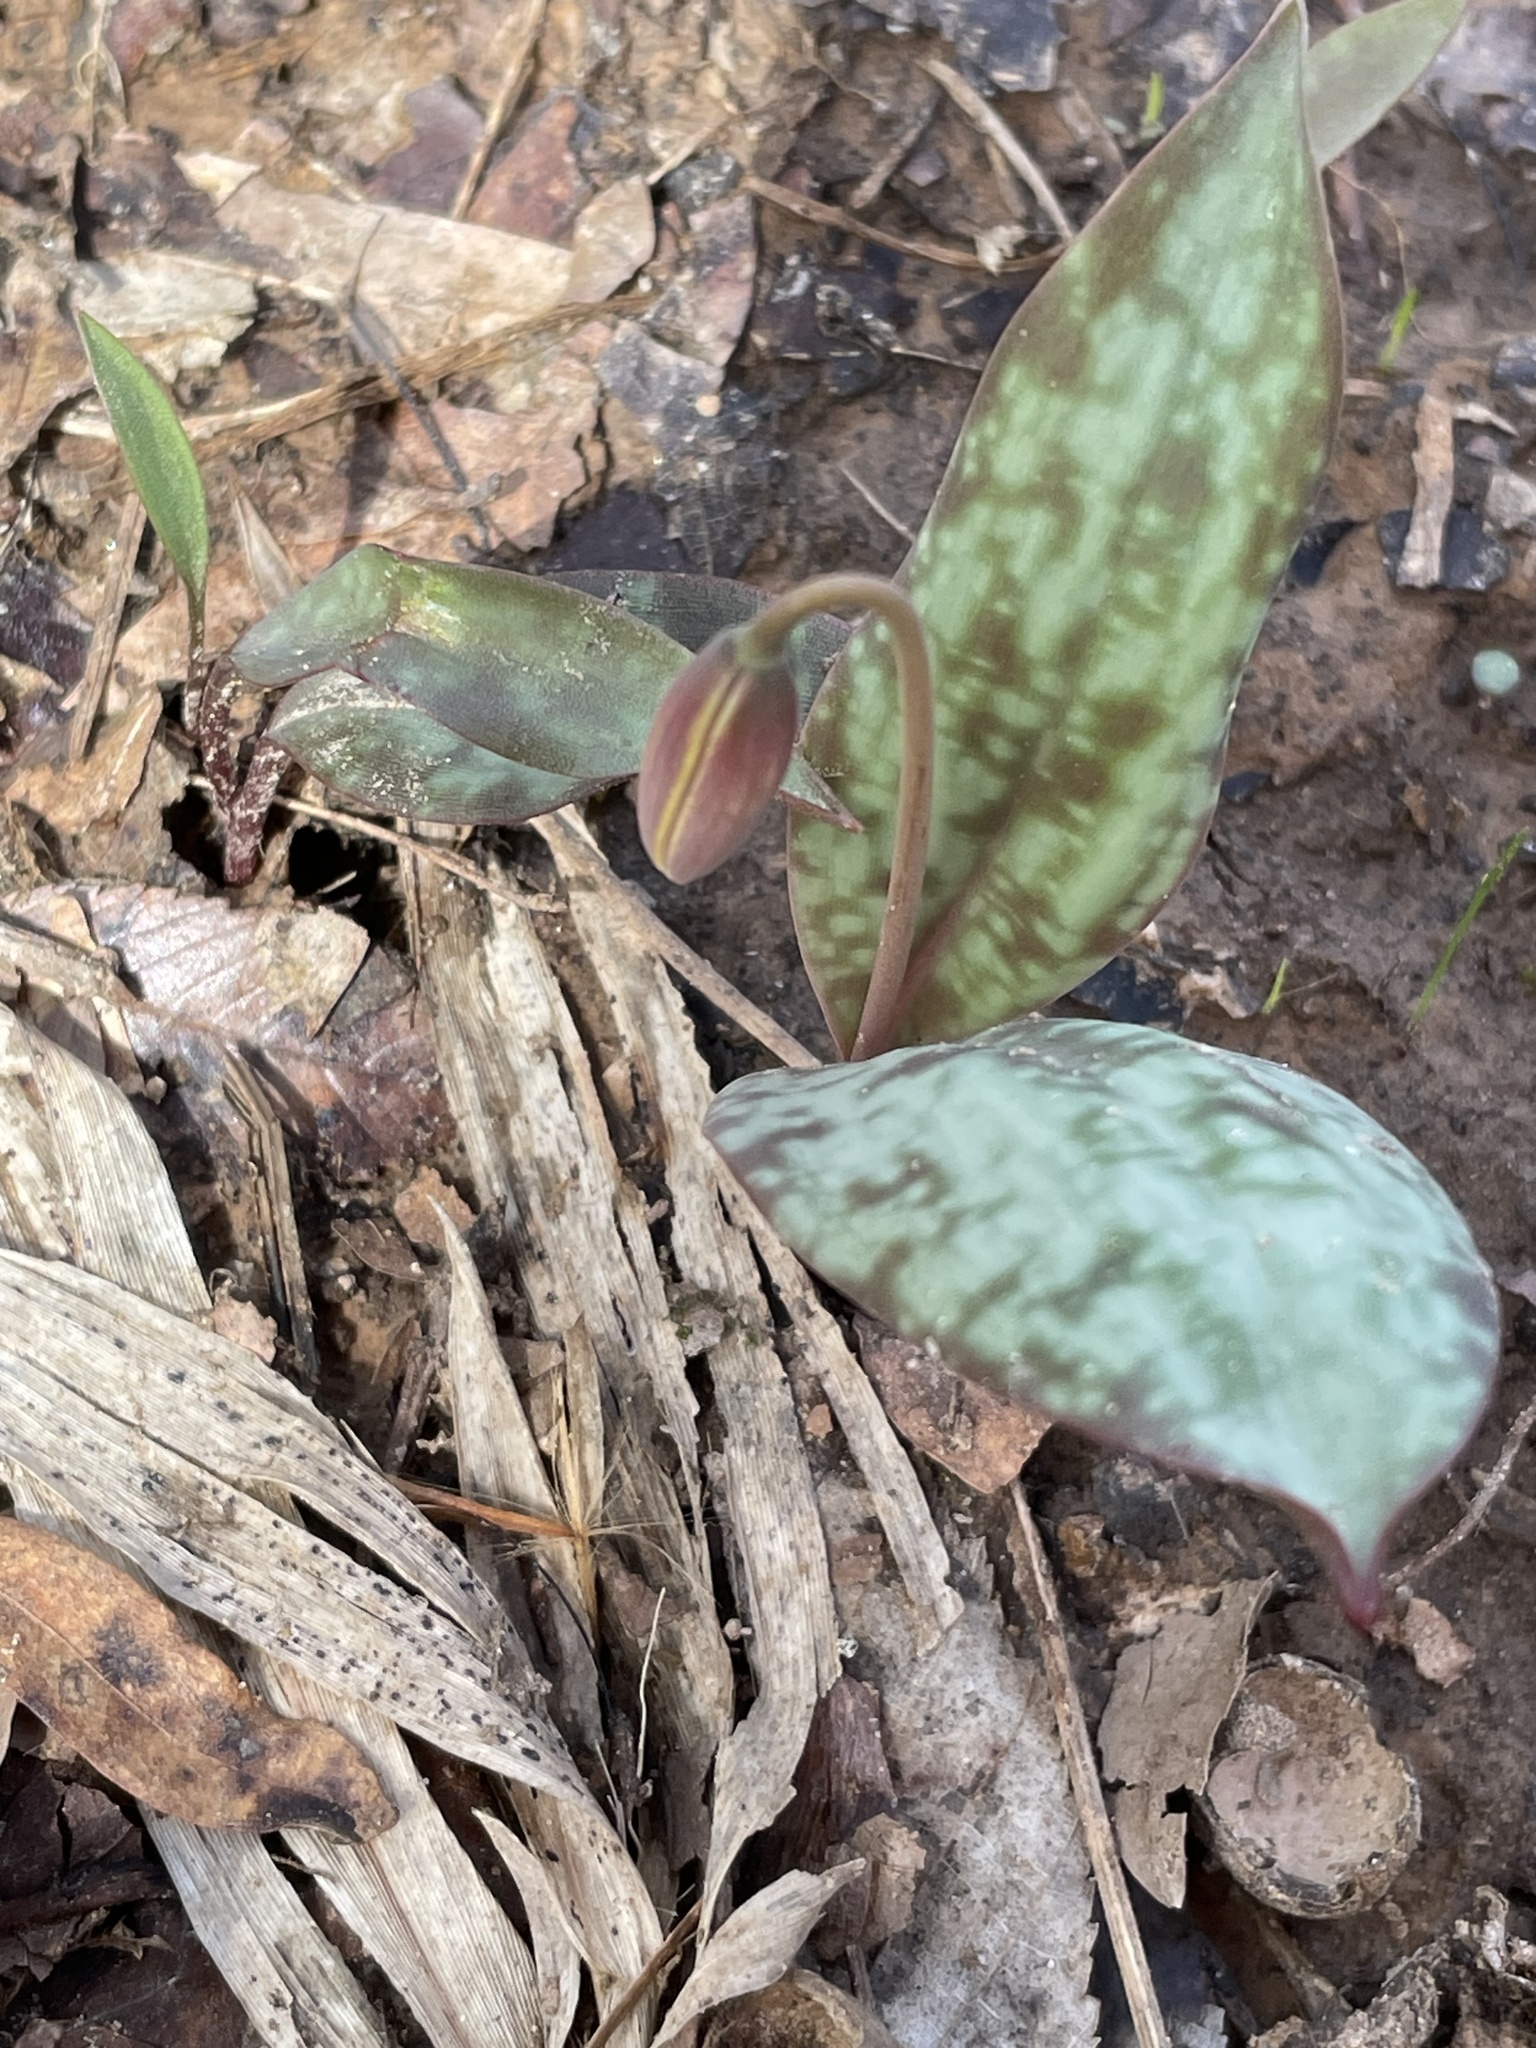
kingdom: Plantae
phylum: Tracheophyta
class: Liliopsida
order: Liliales
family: Liliaceae
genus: Erythronium
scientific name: Erythronium umbilicatum
